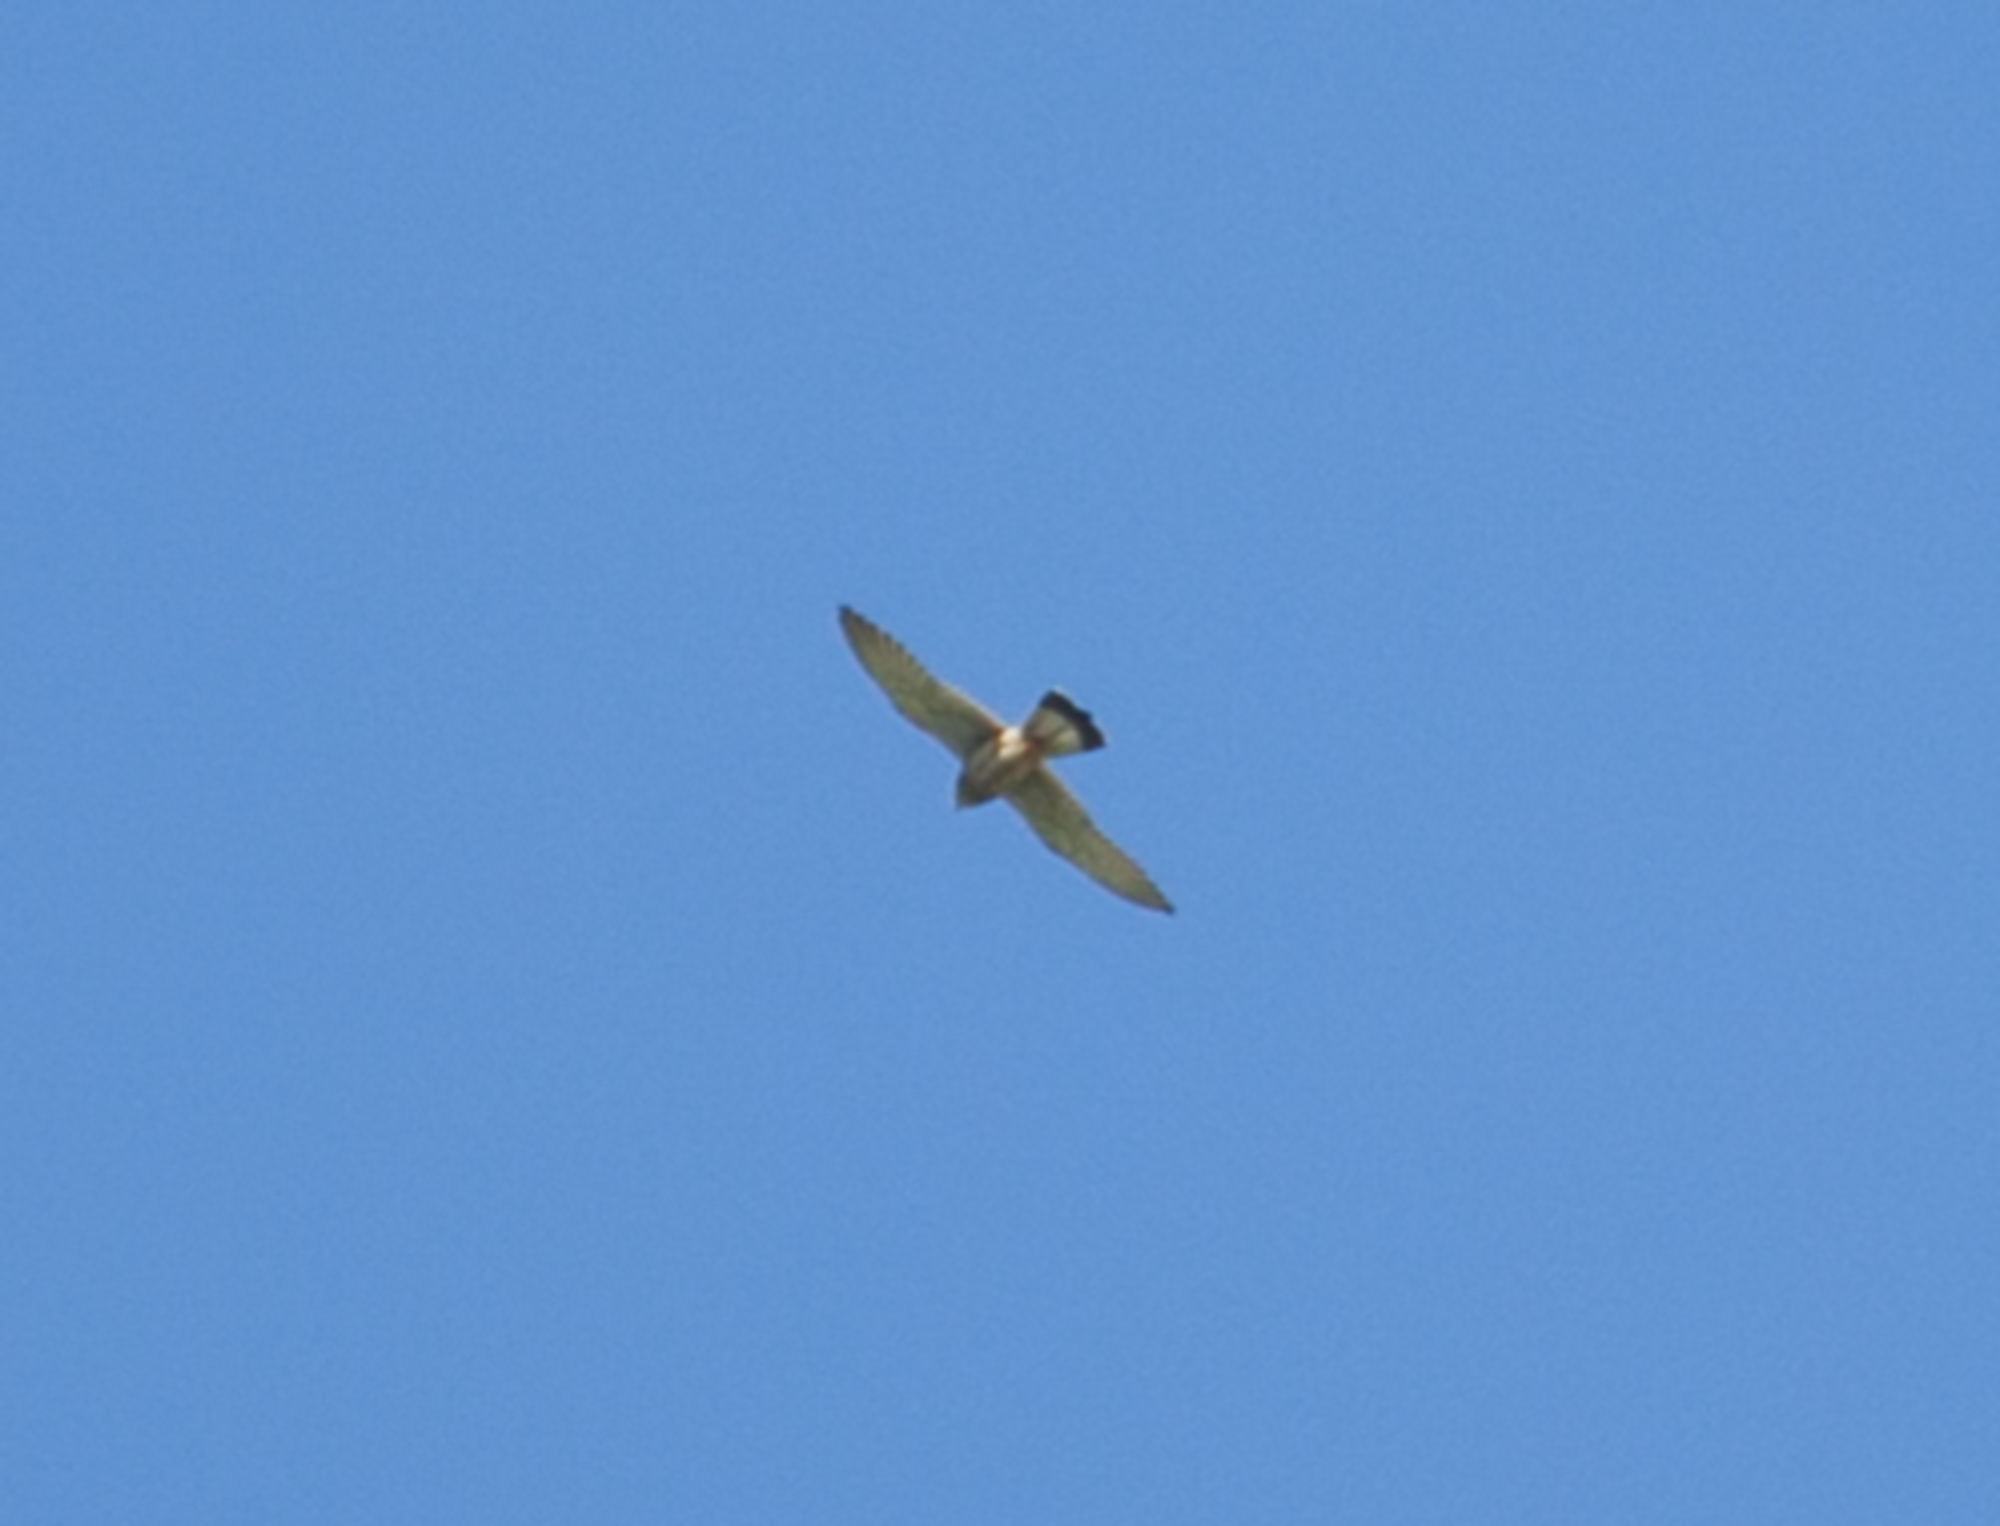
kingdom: Animalia
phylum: Chordata
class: Aves
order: Falconiformes
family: Falconidae
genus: Falco
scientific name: Falco tinnunculus
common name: Common kestrel
